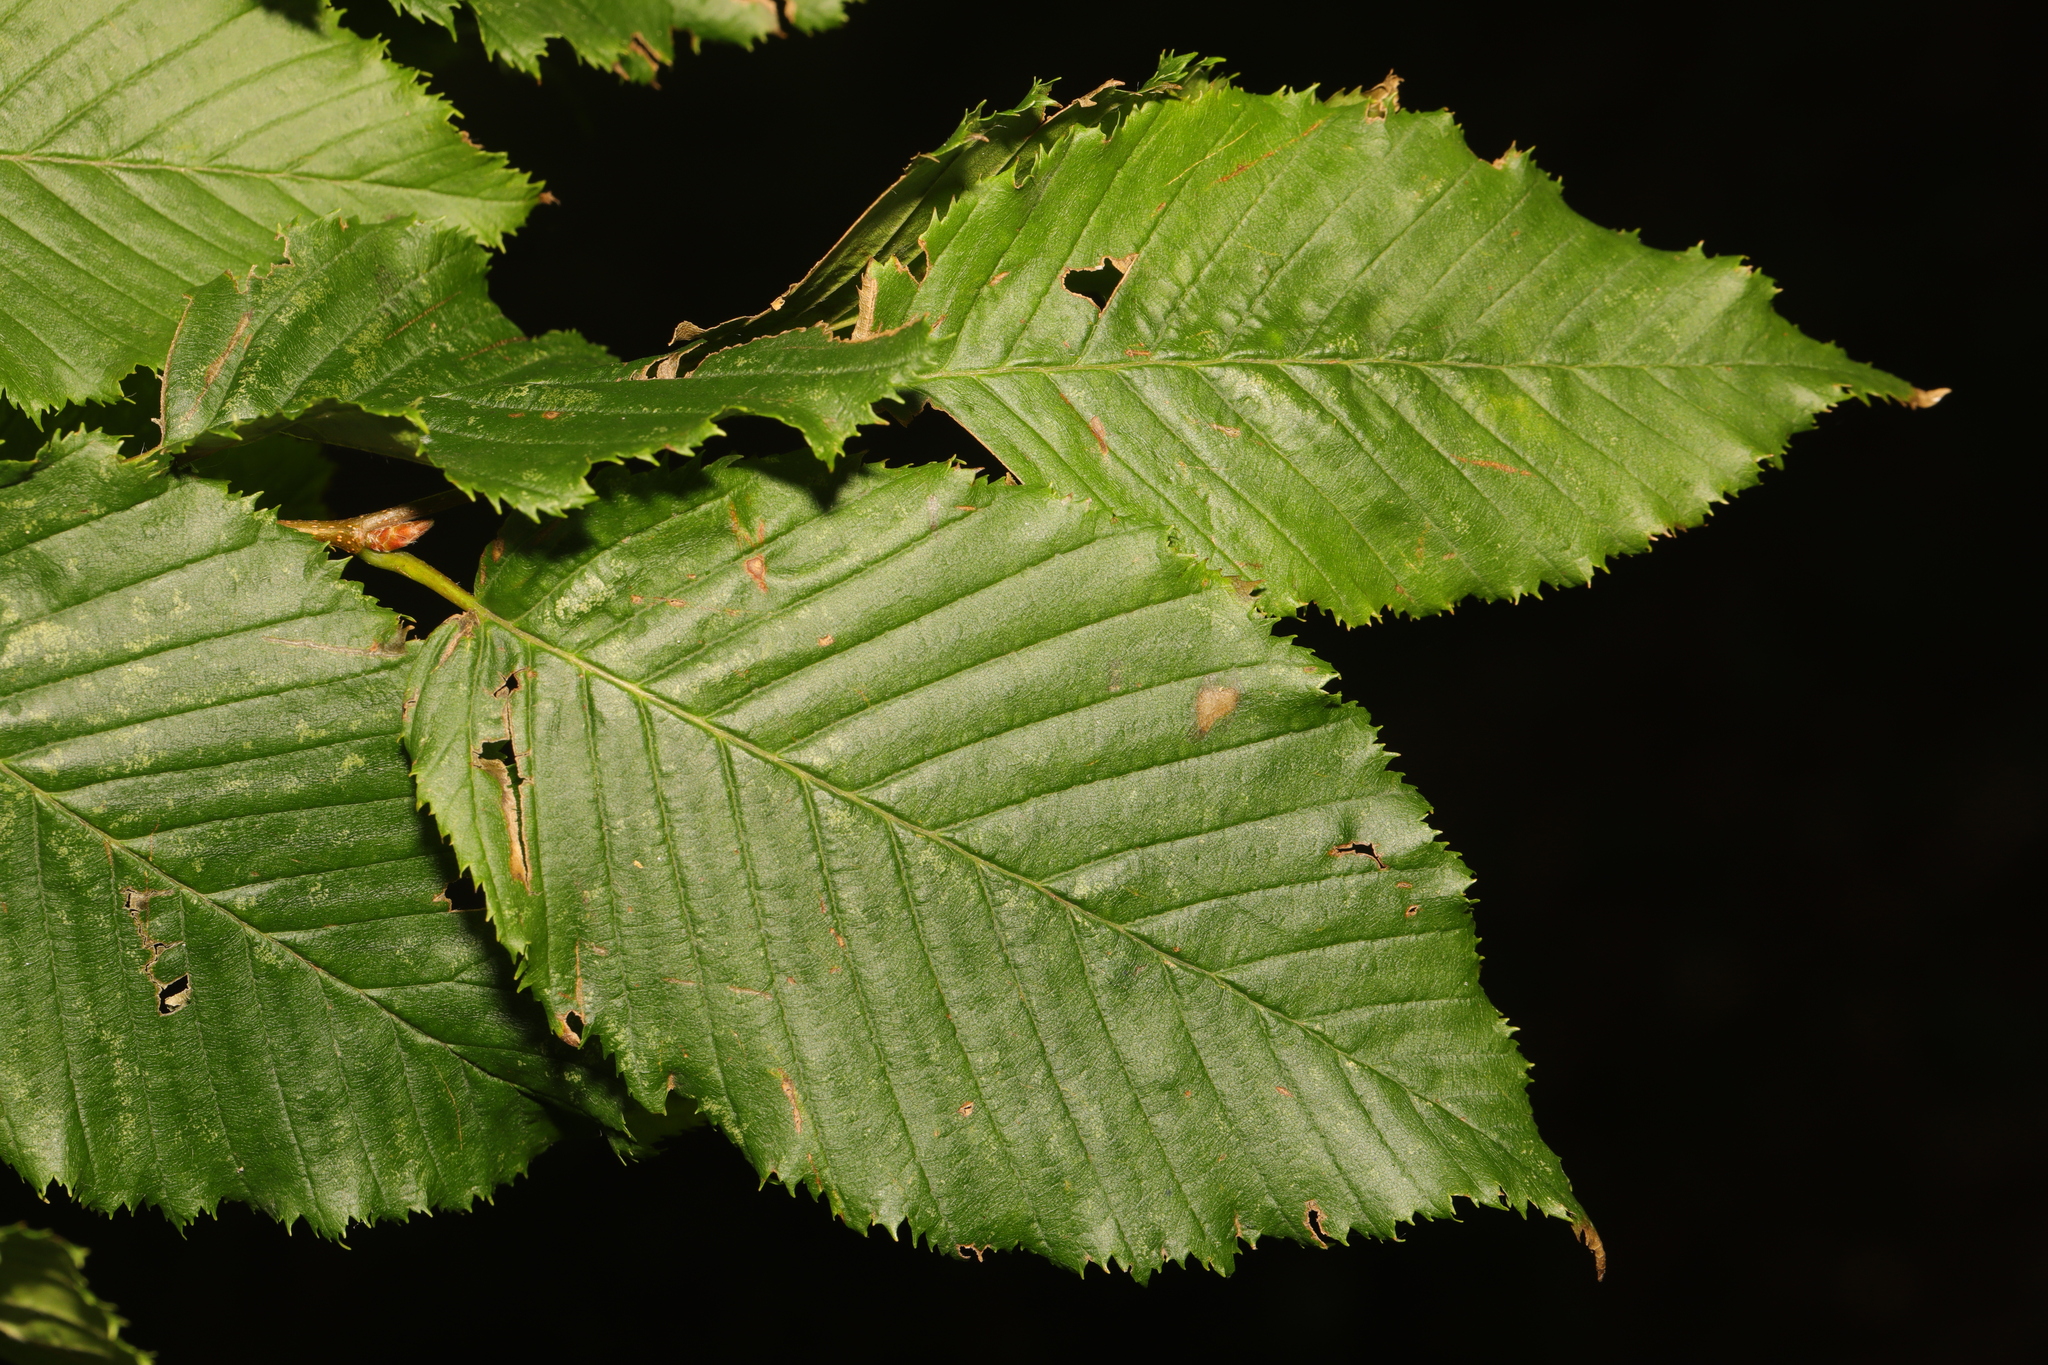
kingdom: Plantae
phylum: Tracheophyta
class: Magnoliopsida
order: Fagales
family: Betulaceae
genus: Carpinus
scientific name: Carpinus betulus
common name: Hornbeam
